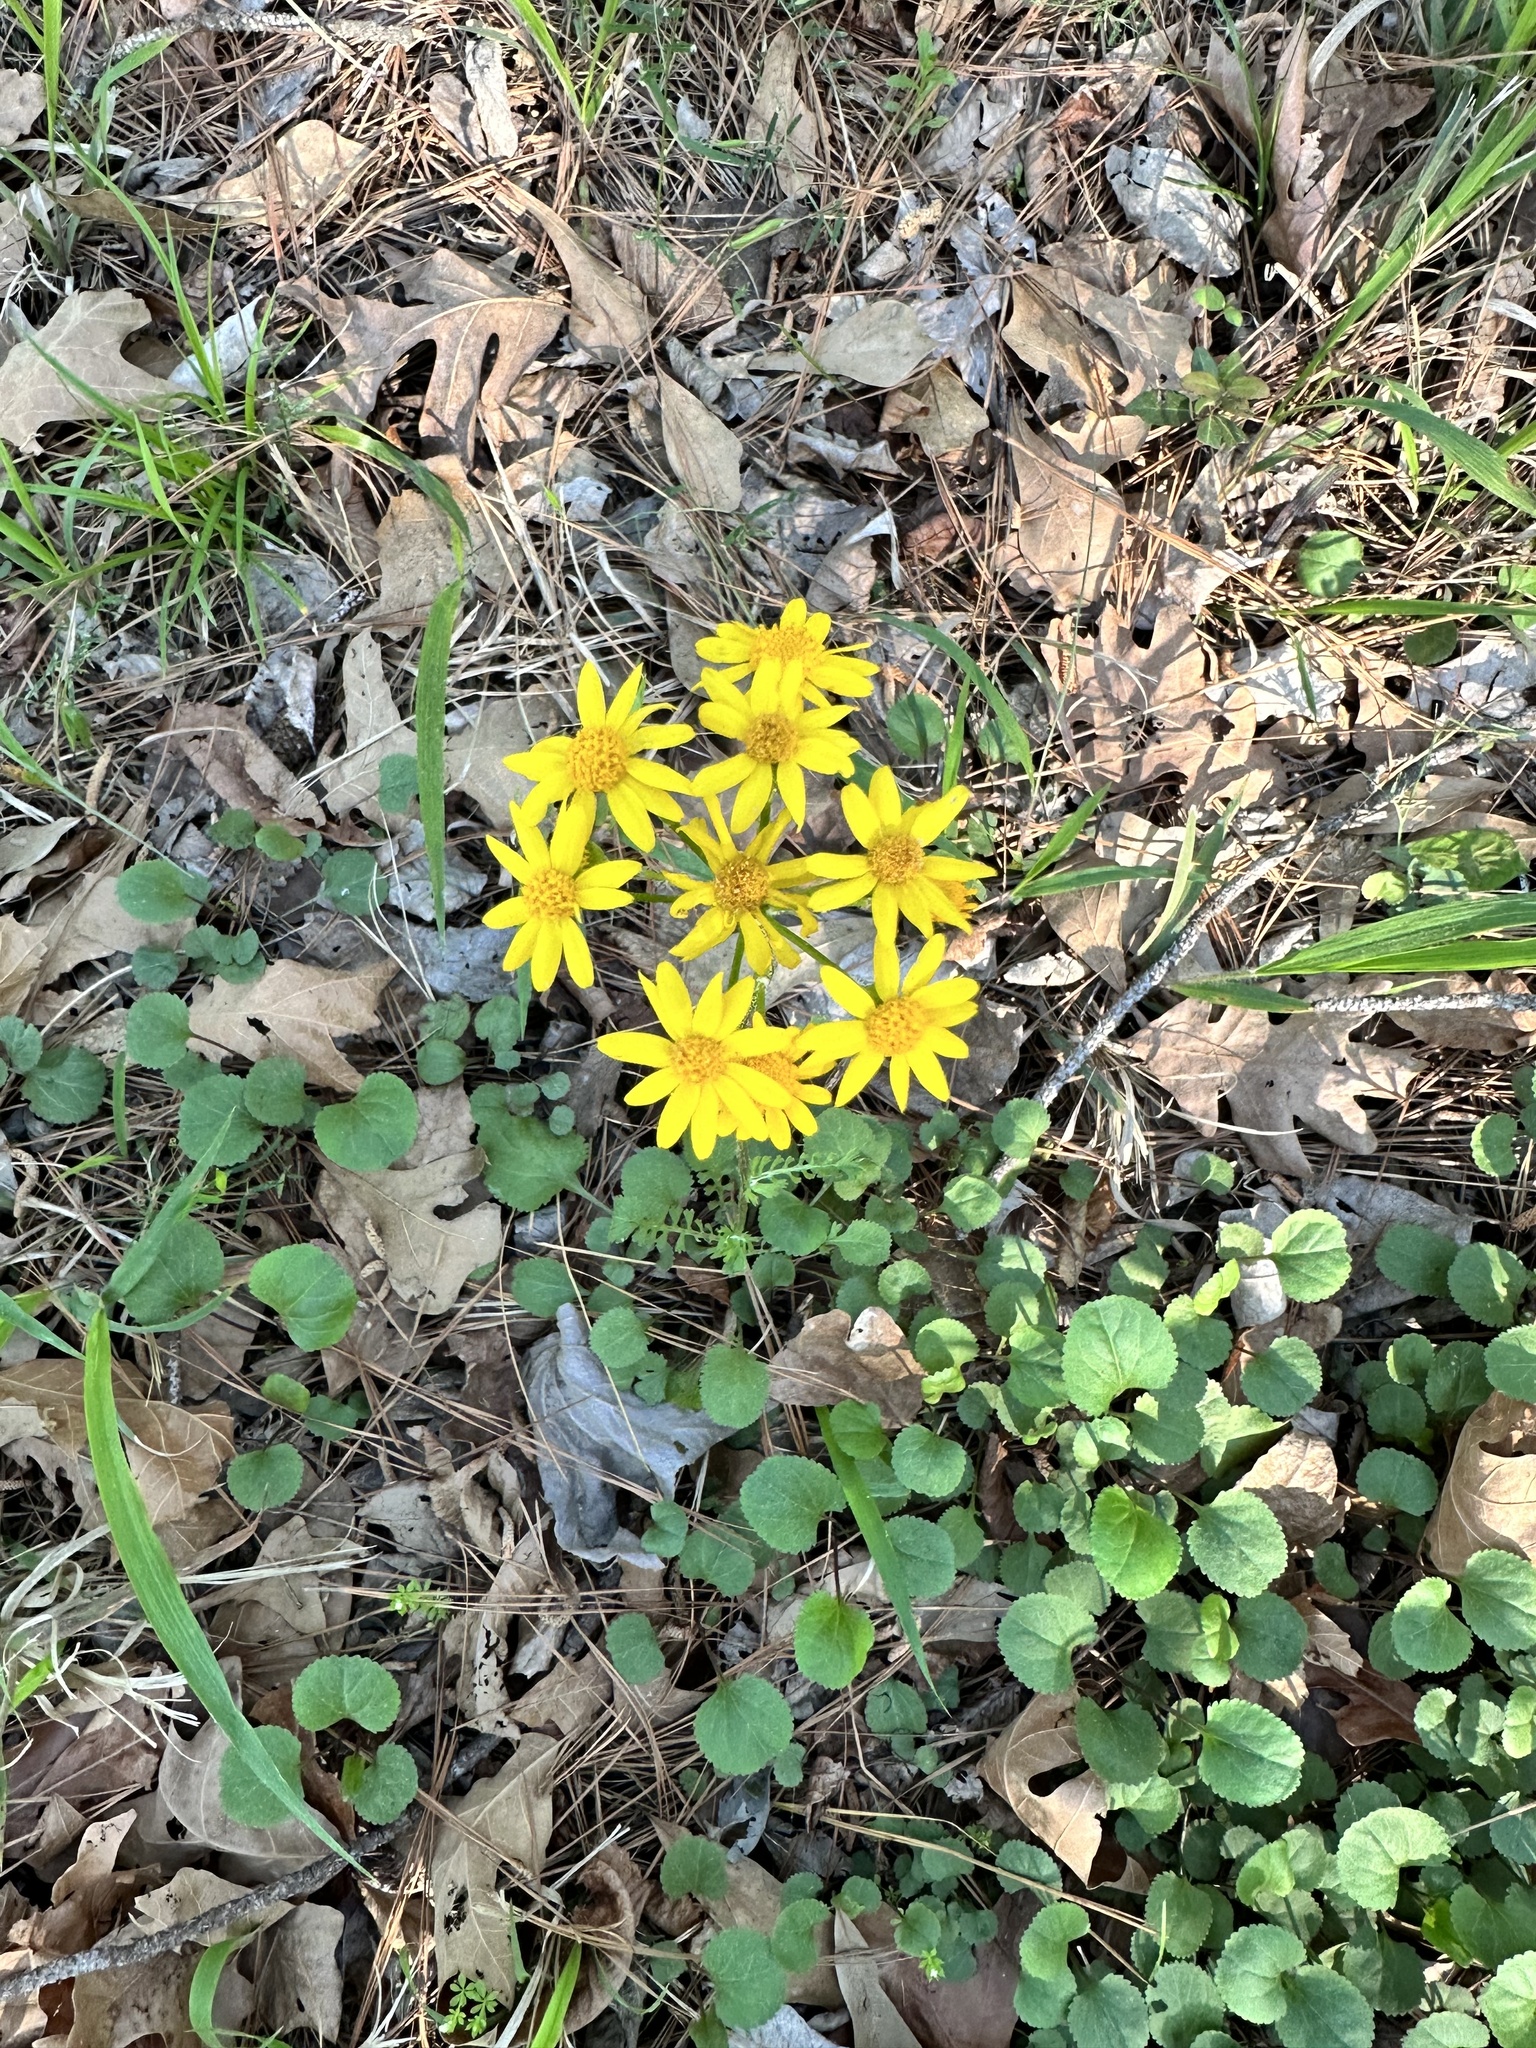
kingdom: Plantae
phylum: Tracheophyta
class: Magnoliopsida
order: Asterales
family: Asteraceae
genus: Packera
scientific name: Packera obovata
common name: Round-leaf ragwort
